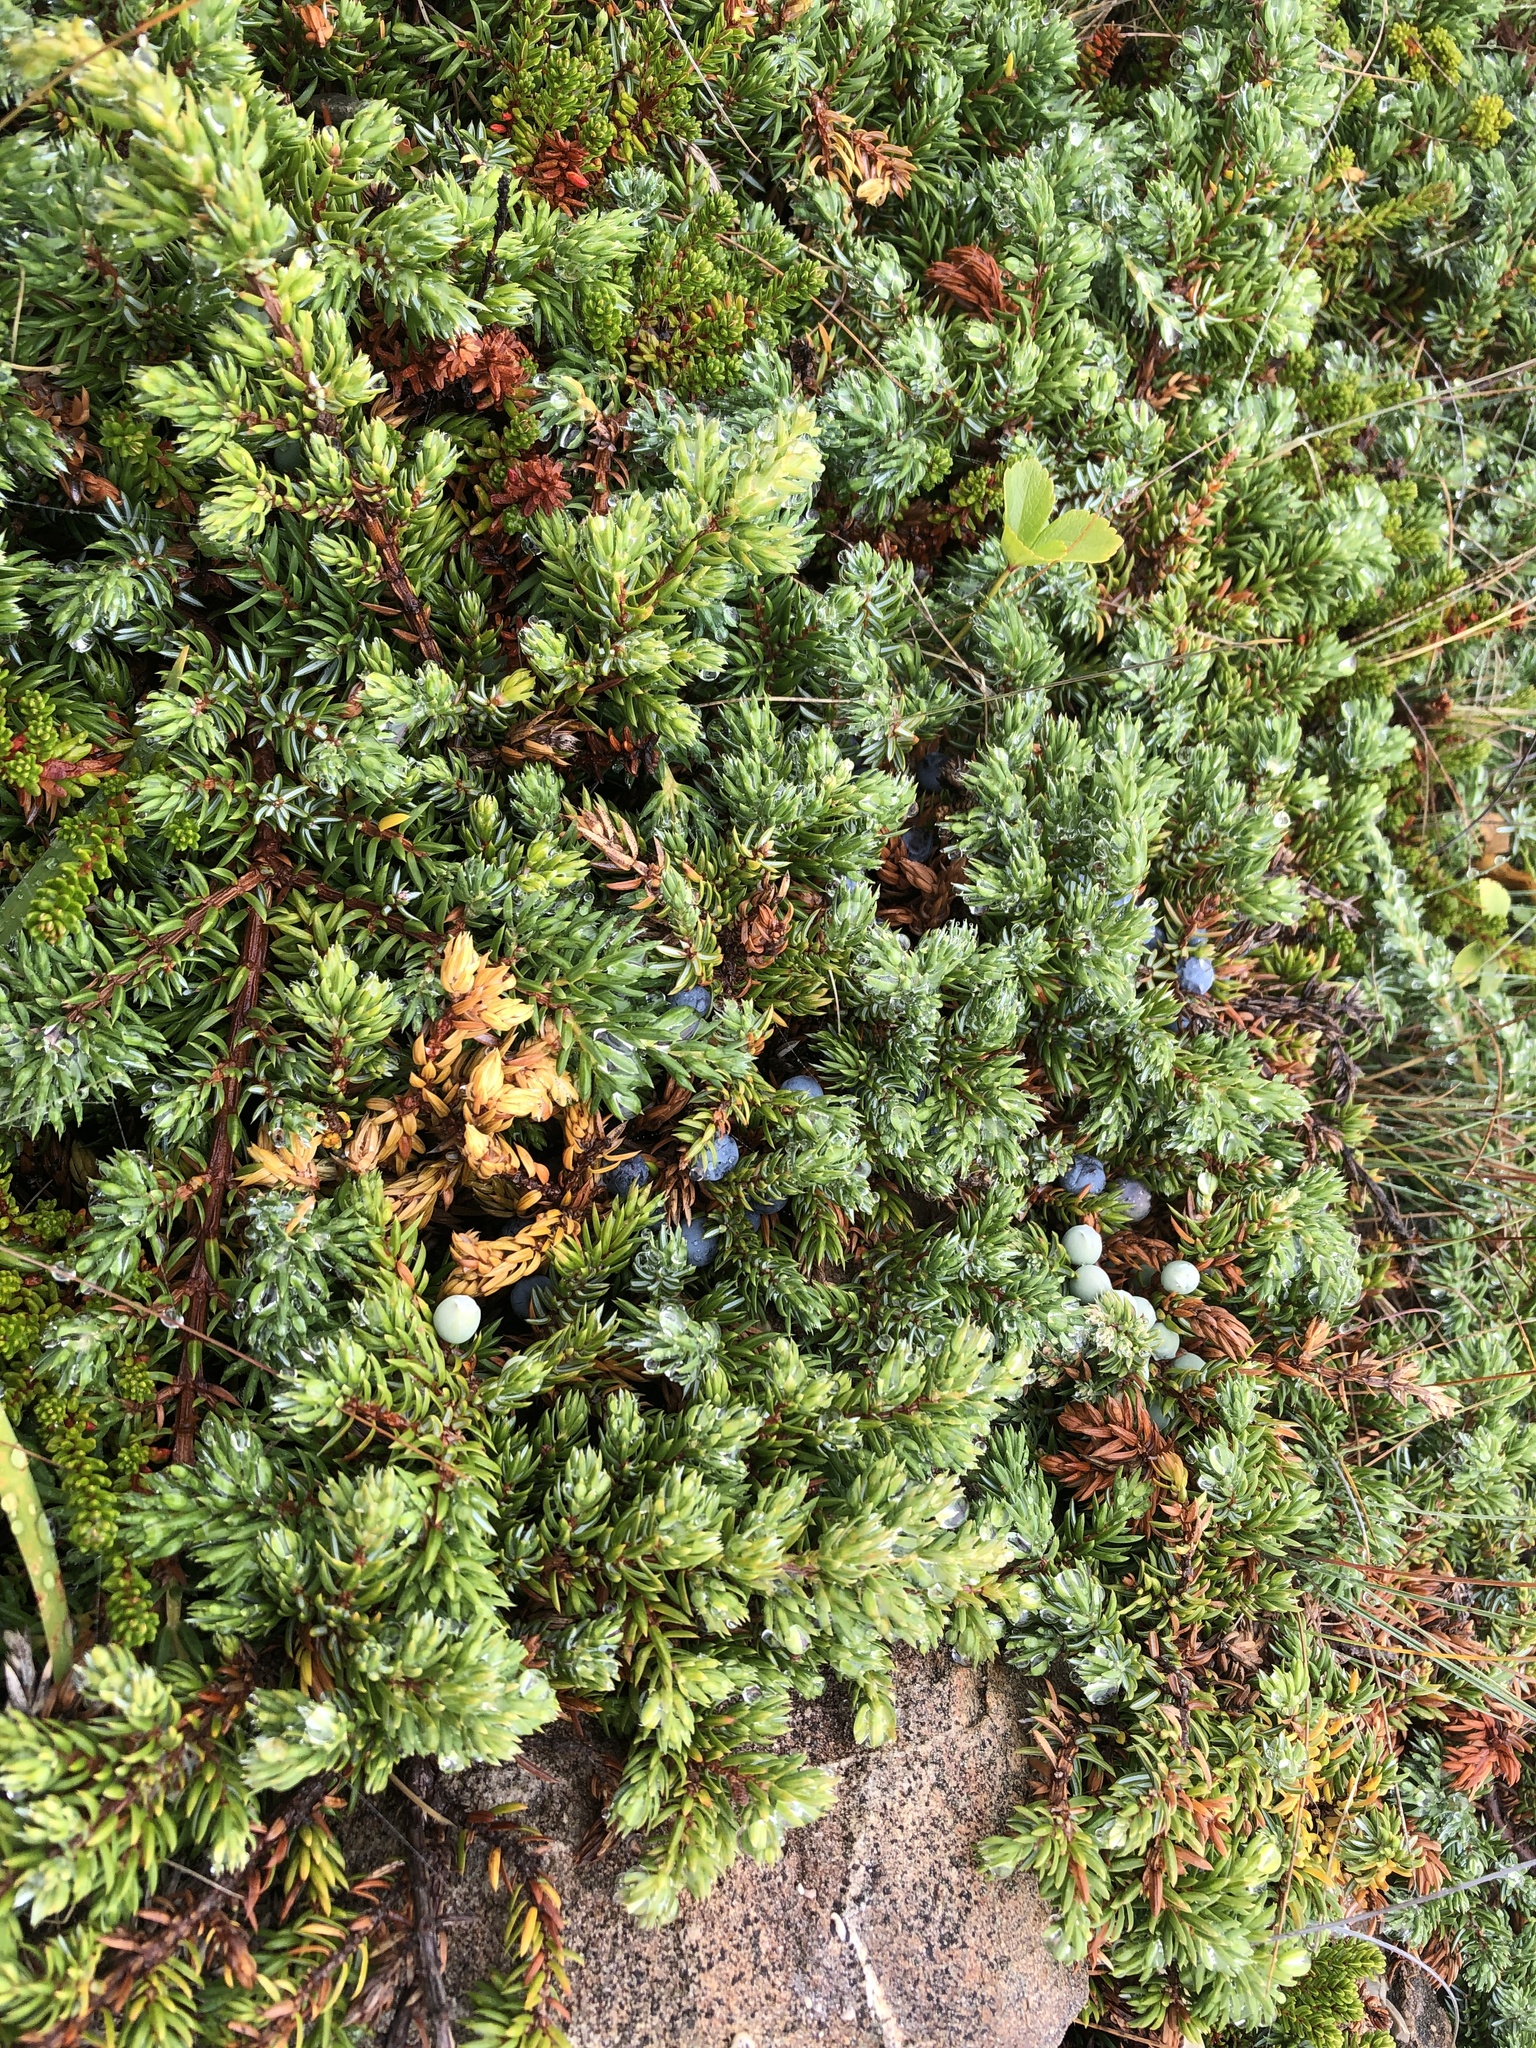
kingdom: Plantae
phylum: Tracheophyta
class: Pinopsida
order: Pinales
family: Cupressaceae
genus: Juniperus
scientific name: Juniperus communis
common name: Common juniper
